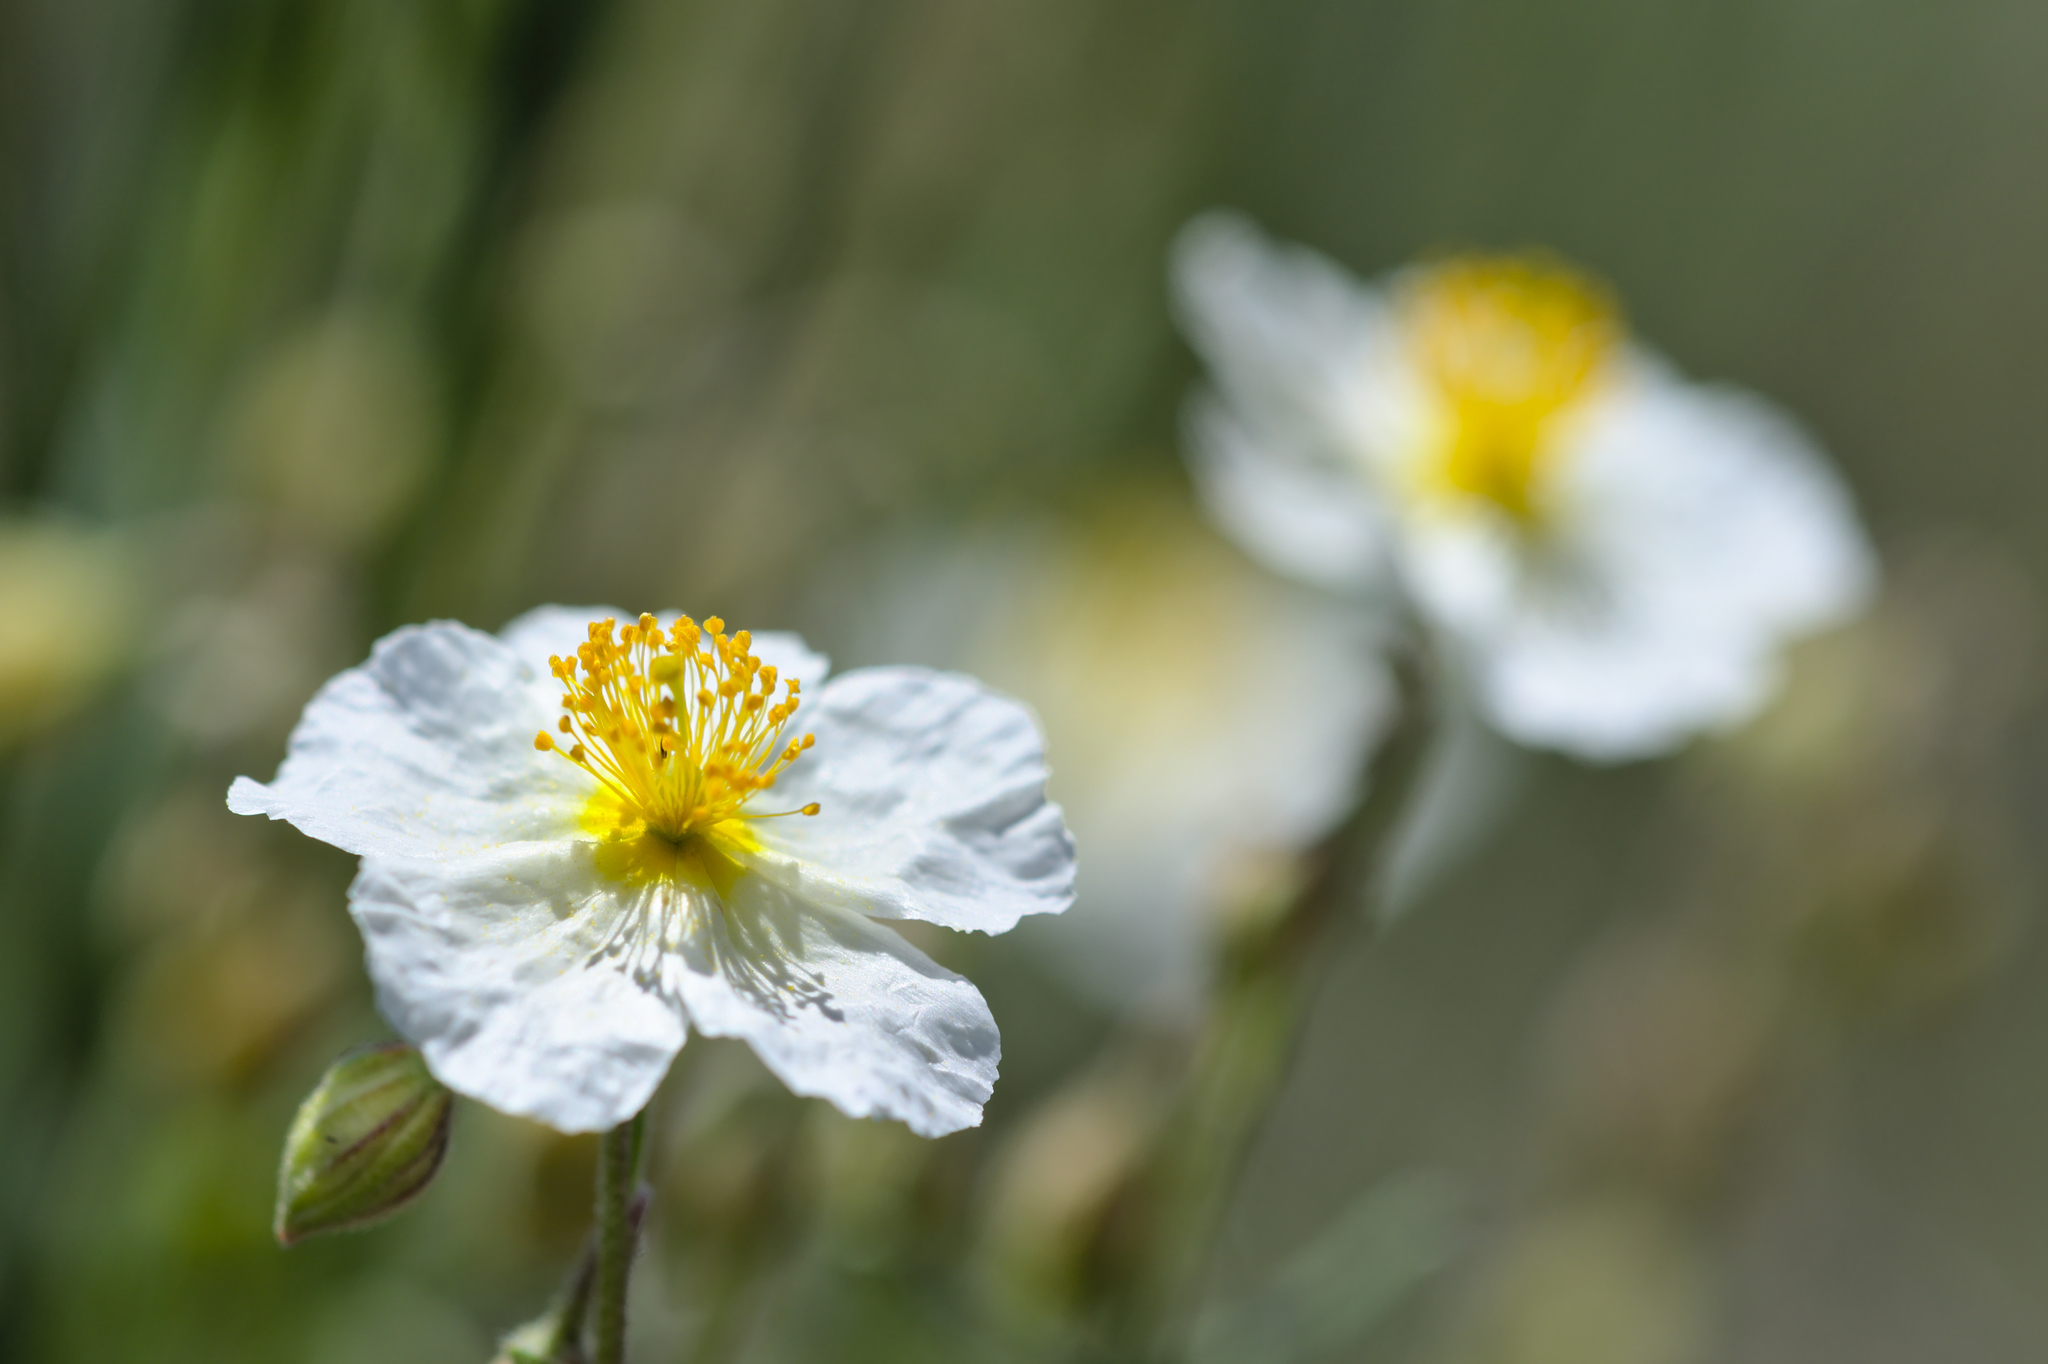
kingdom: Plantae
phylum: Tracheophyta
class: Magnoliopsida
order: Malvales
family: Cistaceae
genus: Helianthemum
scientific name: Helianthemum apenninum
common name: White rock-rose
